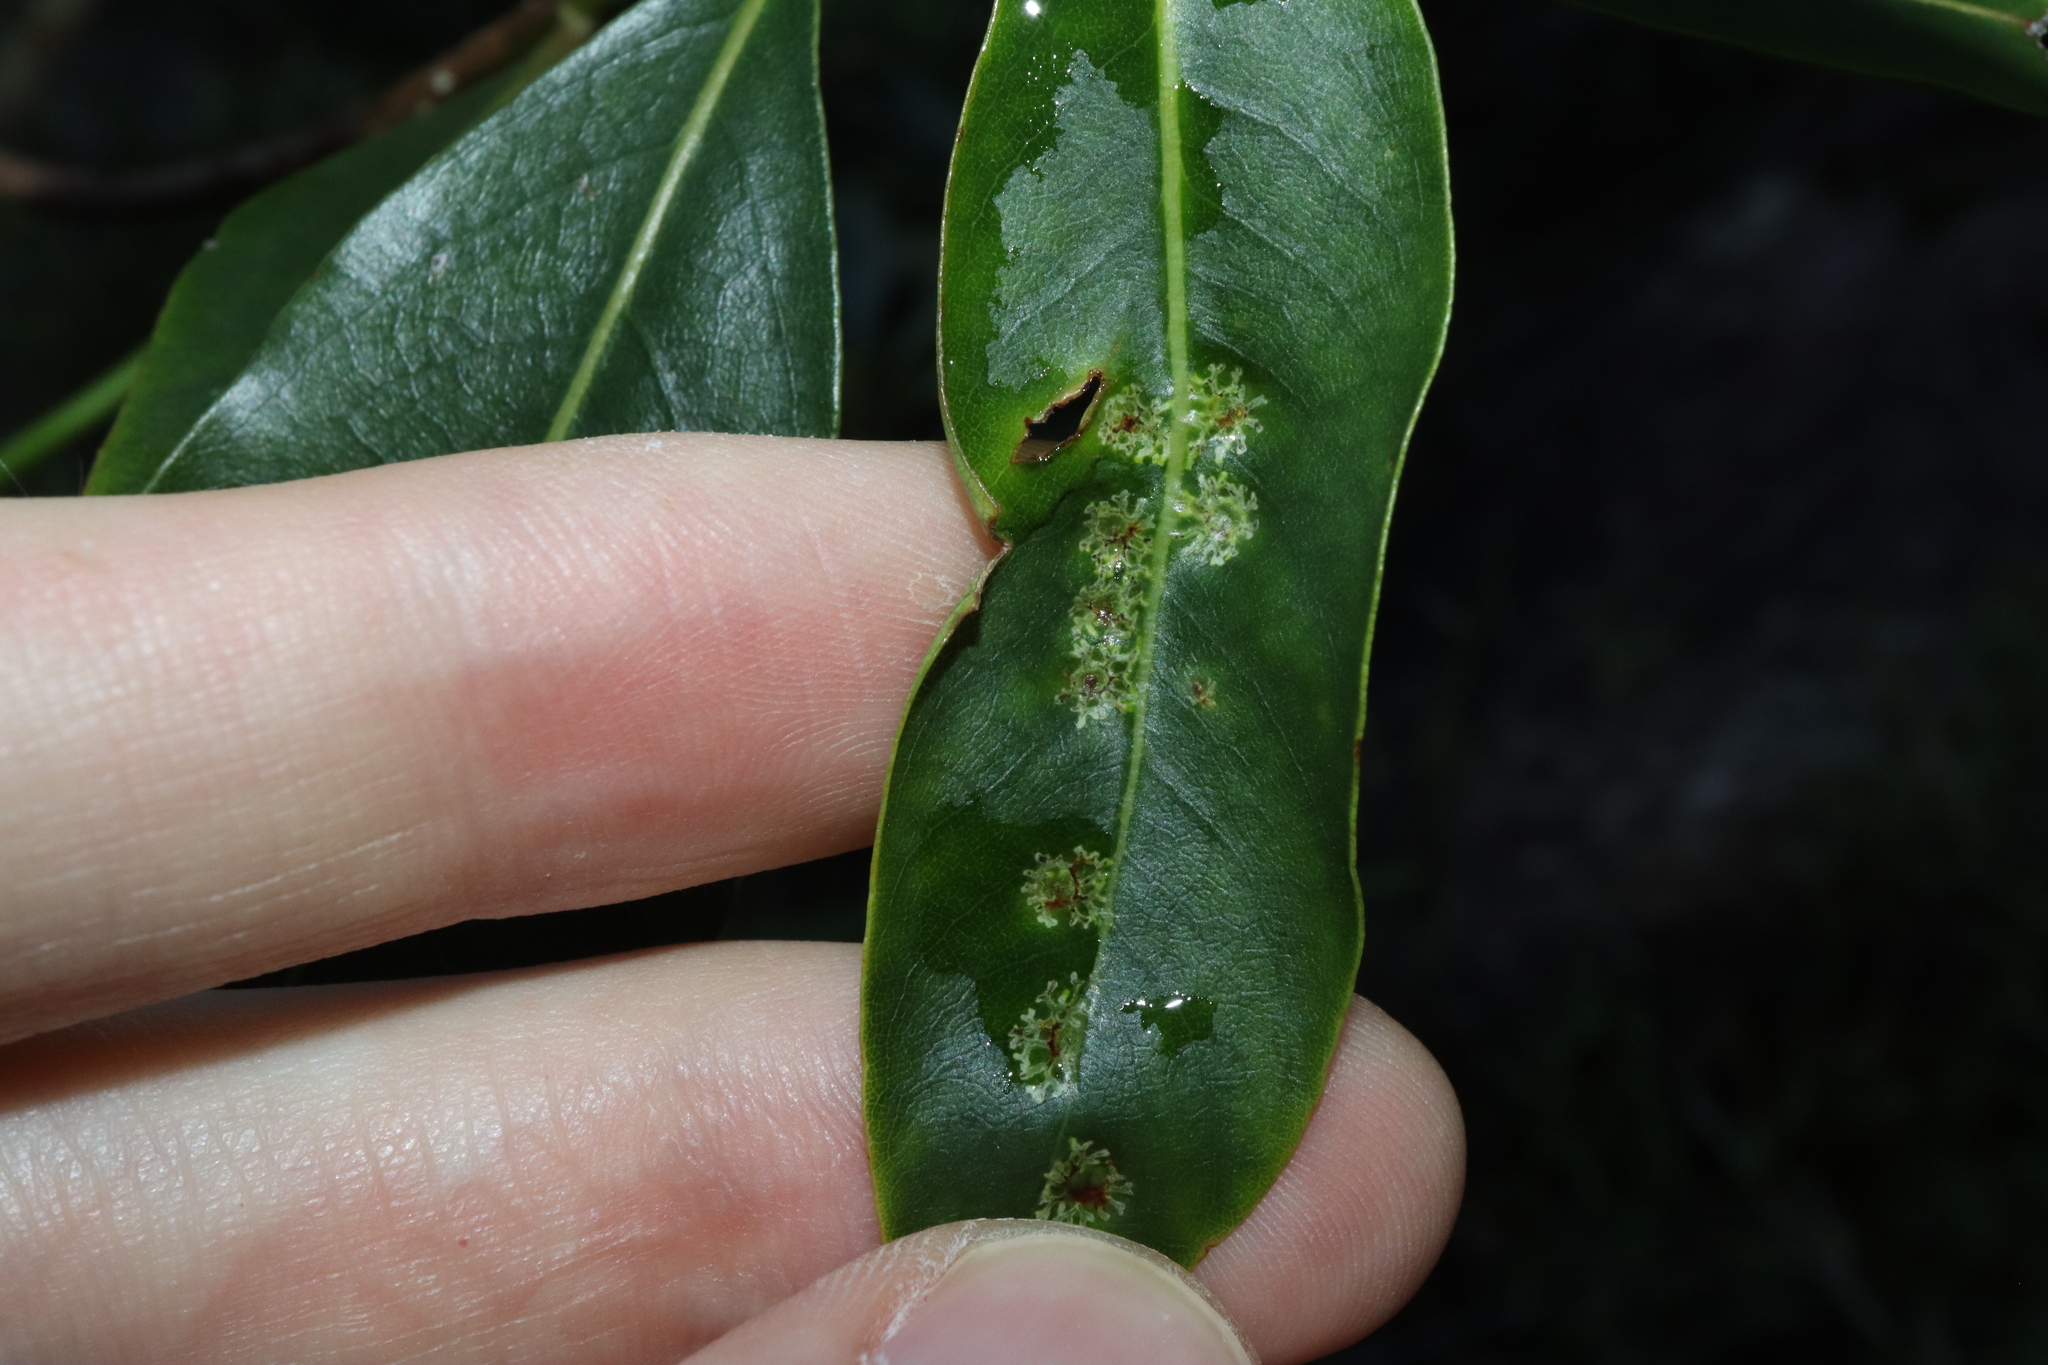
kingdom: Animalia
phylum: Arthropoda
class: Insecta
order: Diptera
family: Agromyzidae
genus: Phytoliriomyza
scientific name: Phytoliriomyza pittosporophylli
